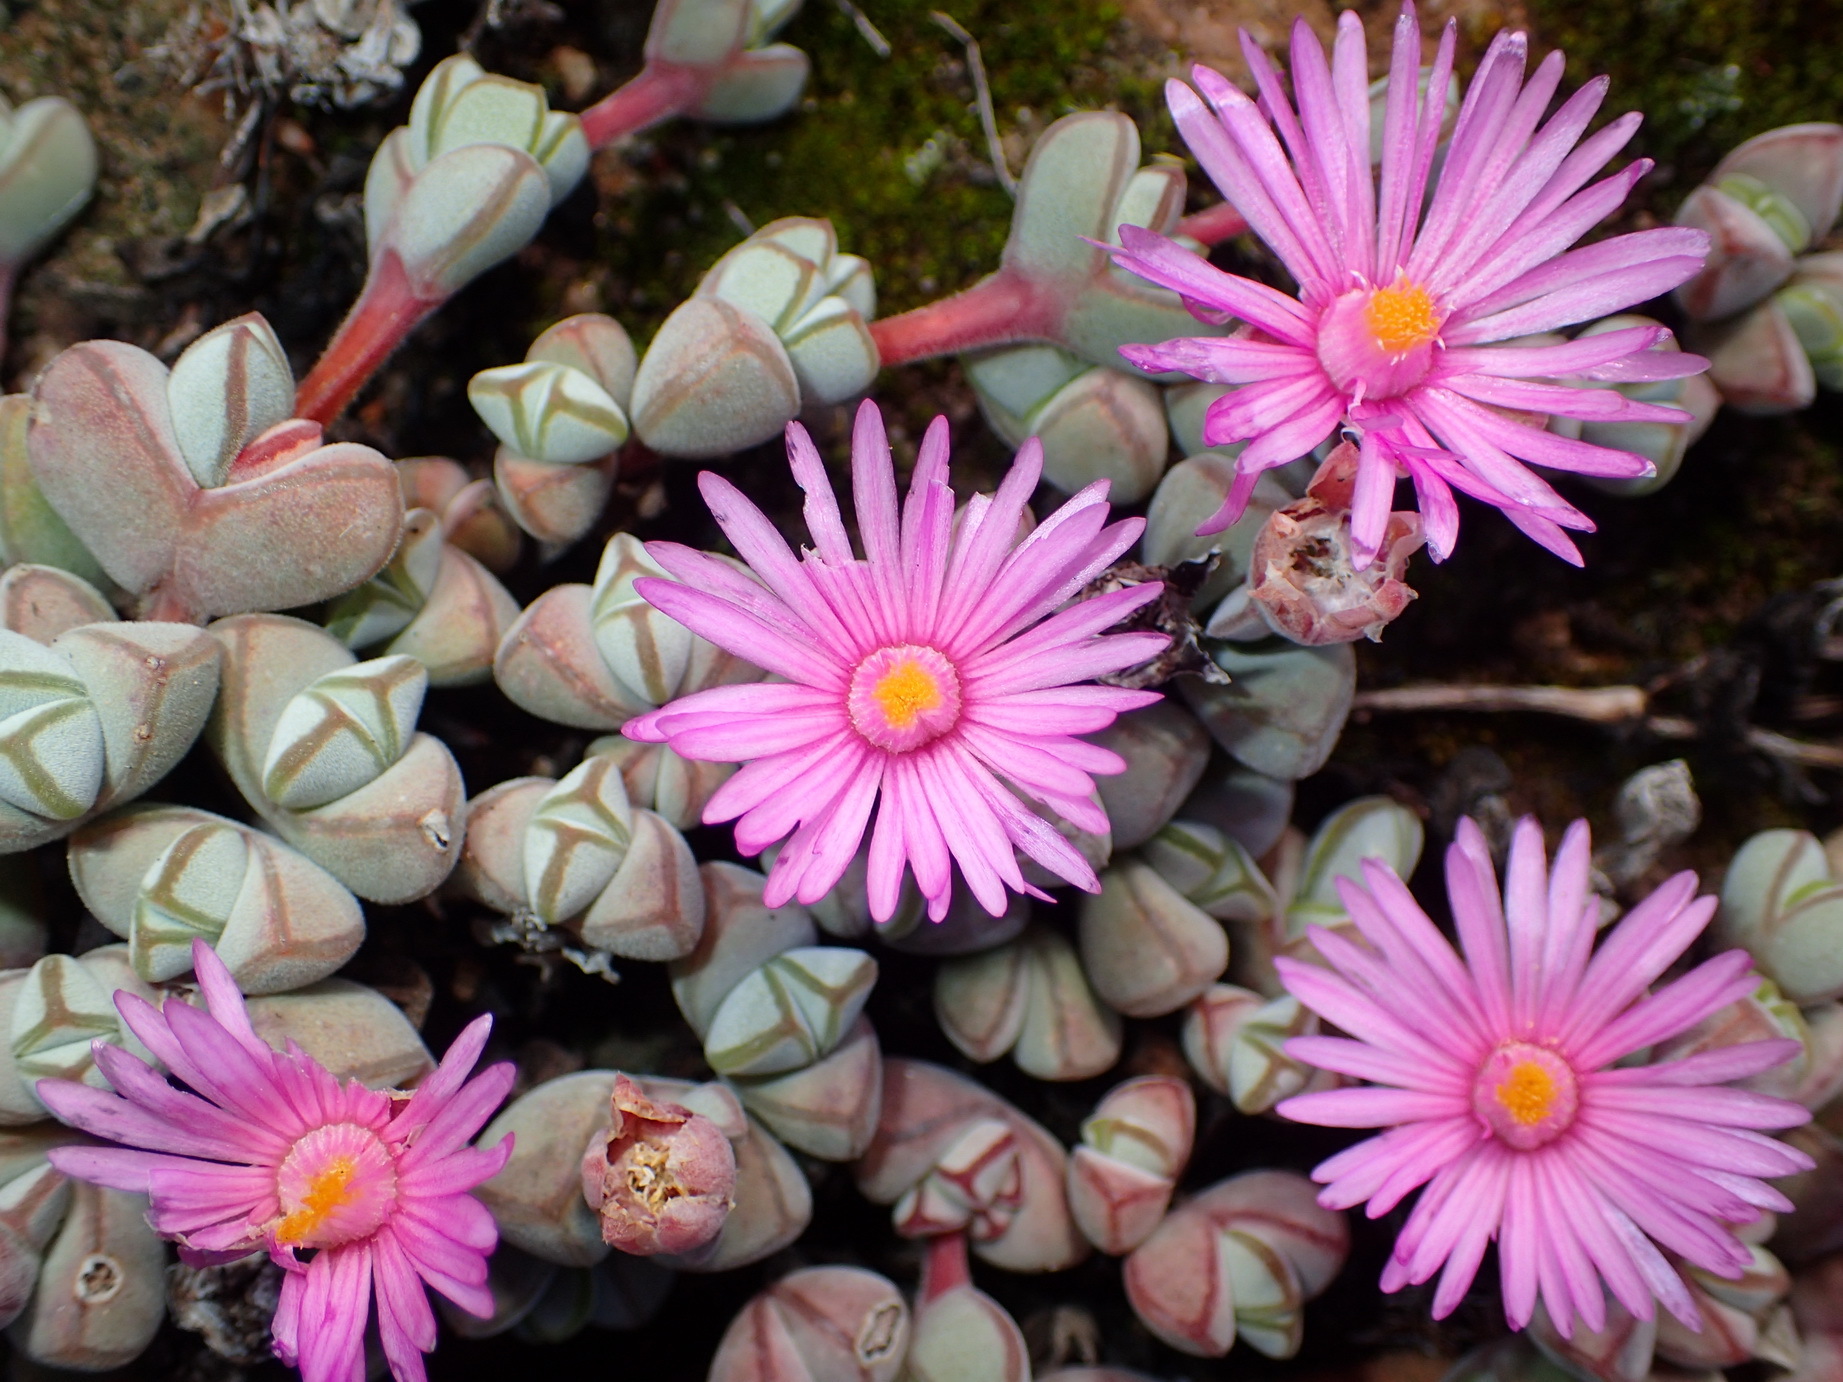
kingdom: Plantae
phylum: Tracheophyta
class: Magnoliopsida
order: Caryophyllales
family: Aizoaceae
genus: Braunsia
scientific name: Braunsia maximiliani
